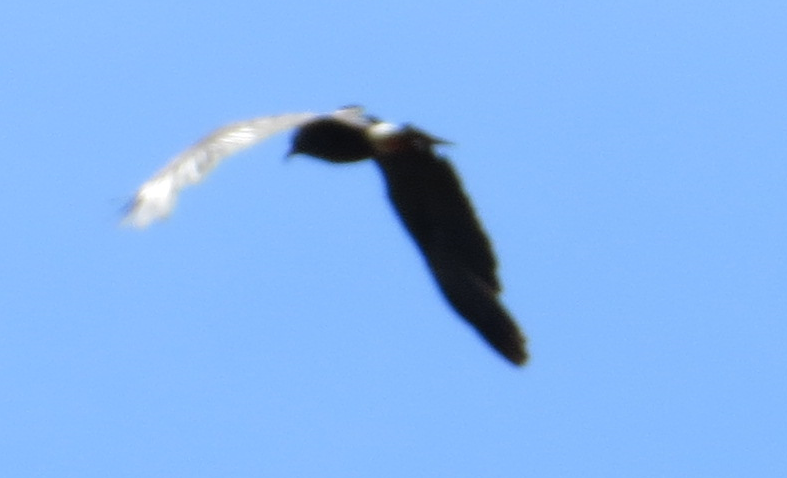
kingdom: Animalia
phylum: Chordata
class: Aves
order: Accipitriformes
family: Accipitridae
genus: Rostrhamus
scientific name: Rostrhamus sociabilis
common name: Snail kite
